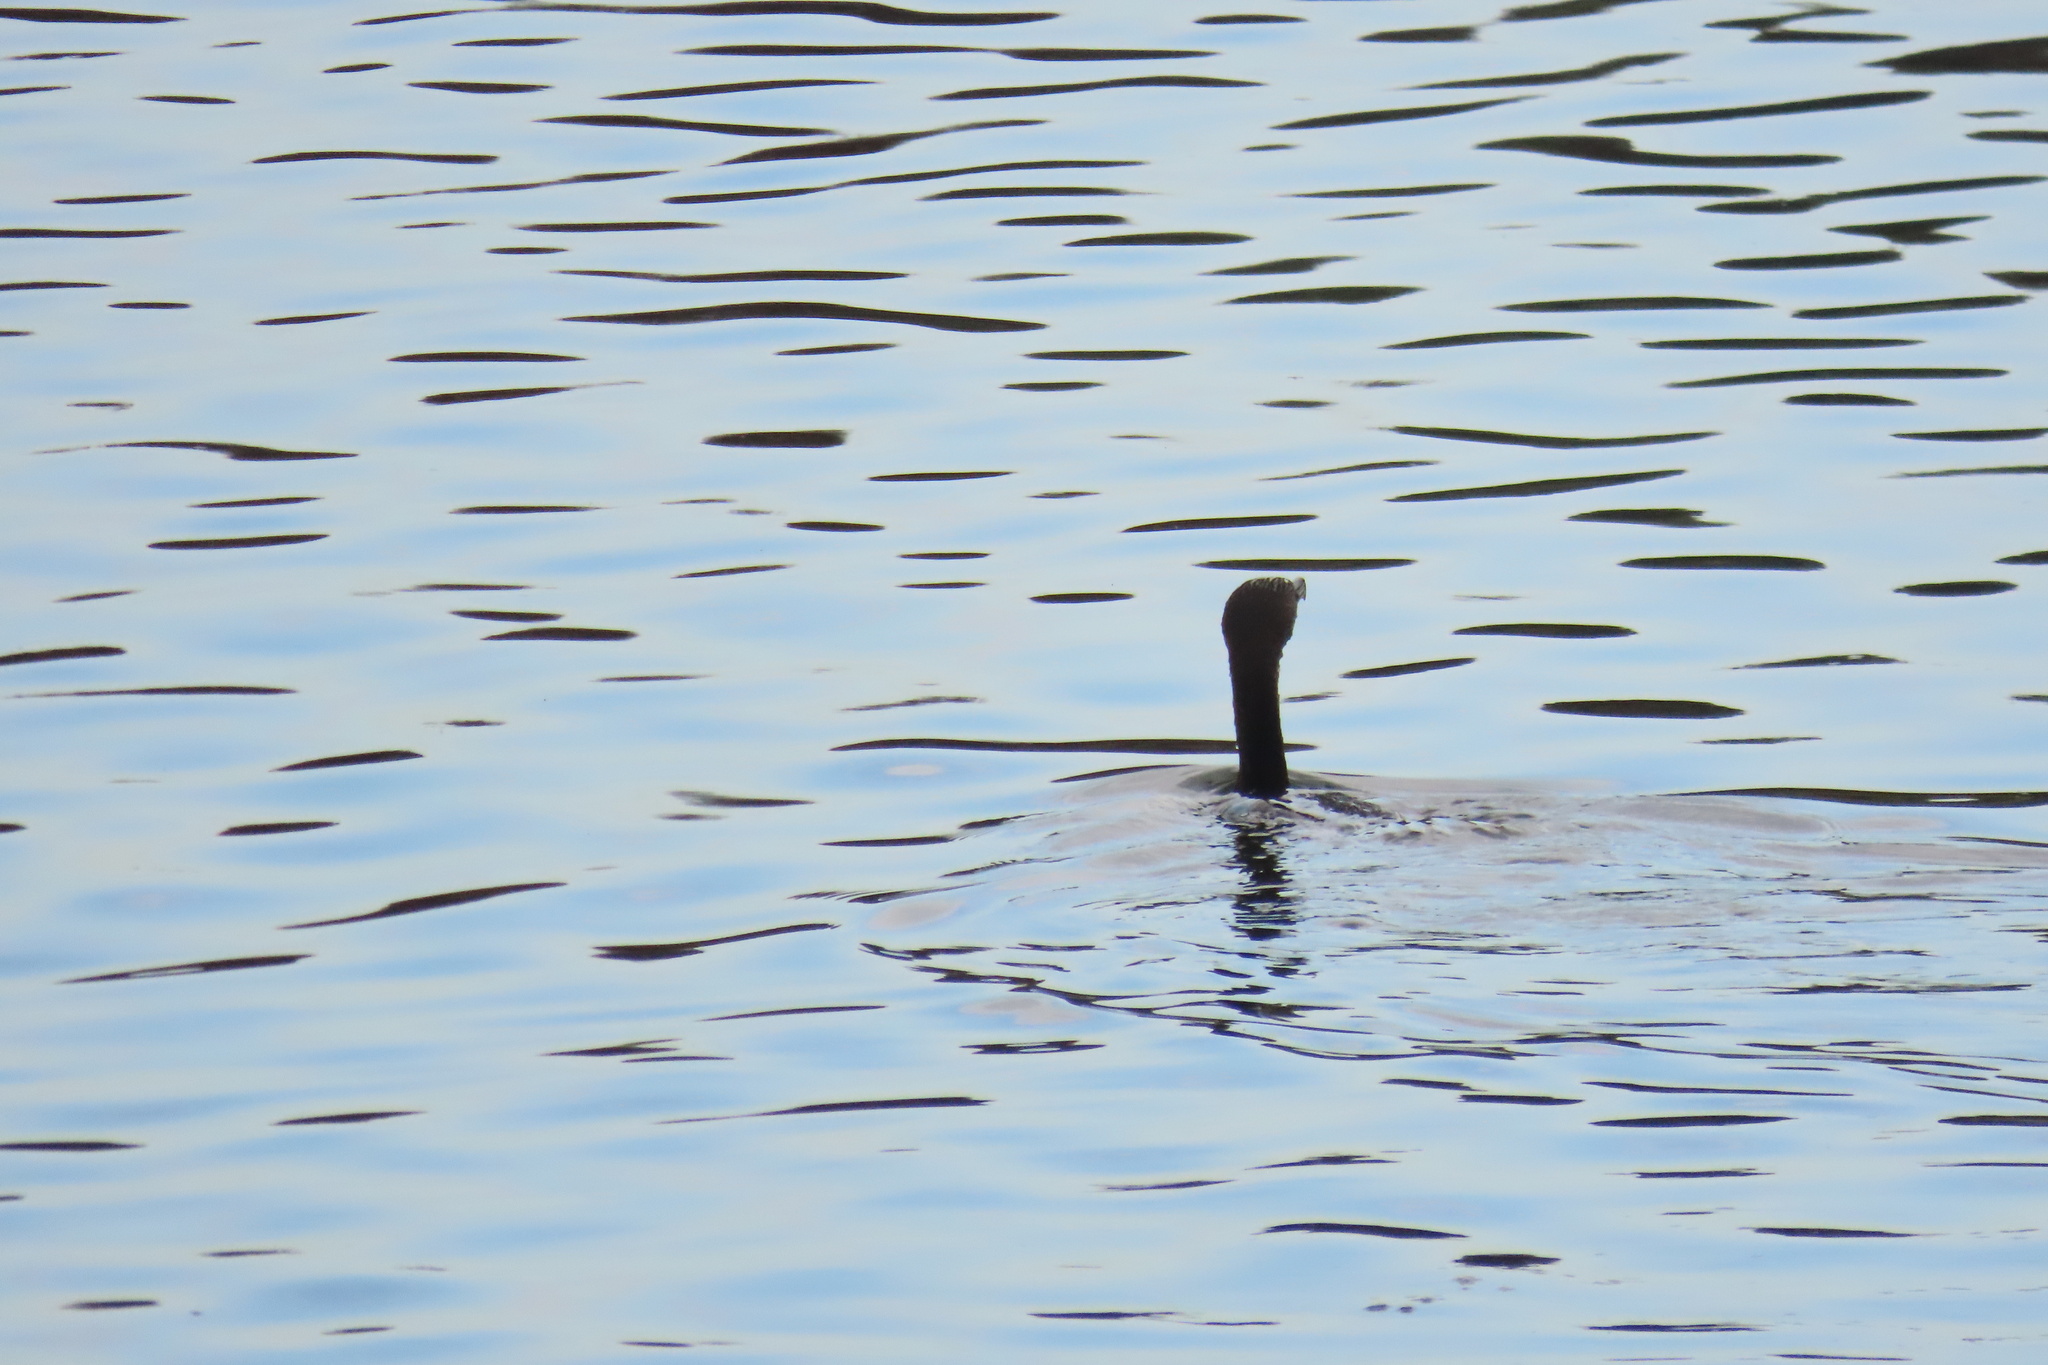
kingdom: Animalia
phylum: Chordata
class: Aves
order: Suliformes
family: Phalacrocoracidae
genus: Phalacrocorax
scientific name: Phalacrocorax auritus
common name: Double-crested cormorant
